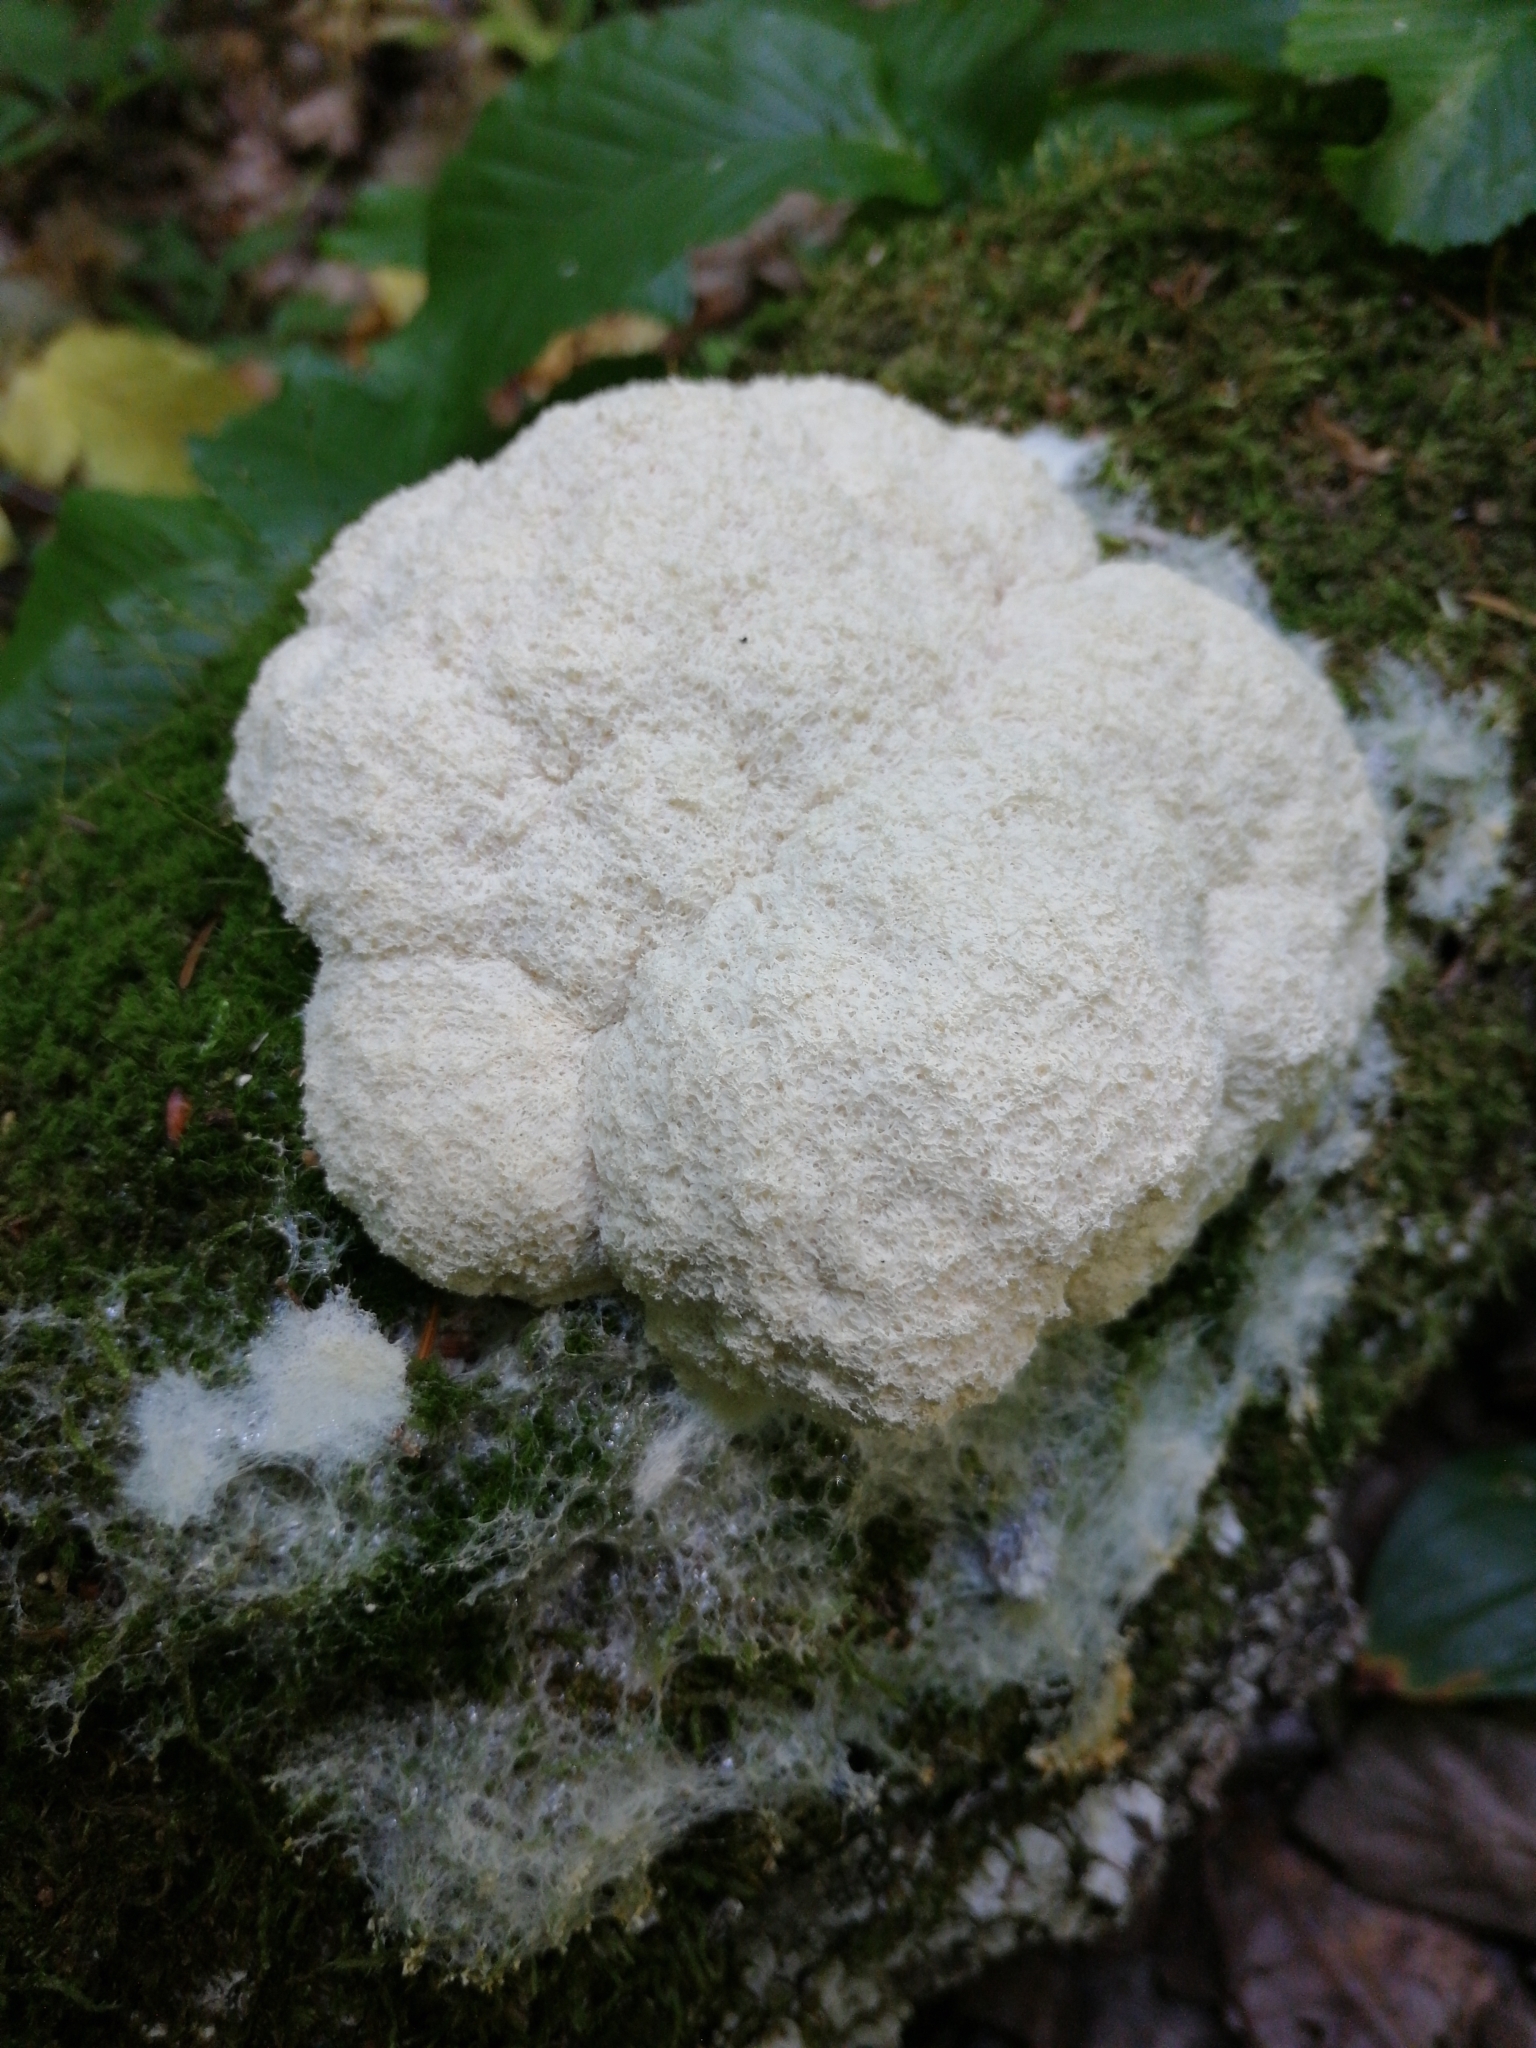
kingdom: Protozoa
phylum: Mycetozoa
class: Myxomycetes
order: Physarales
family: Physaraceae
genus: Fuligo
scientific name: Fuligo septica
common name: Dog vomit slime mold
